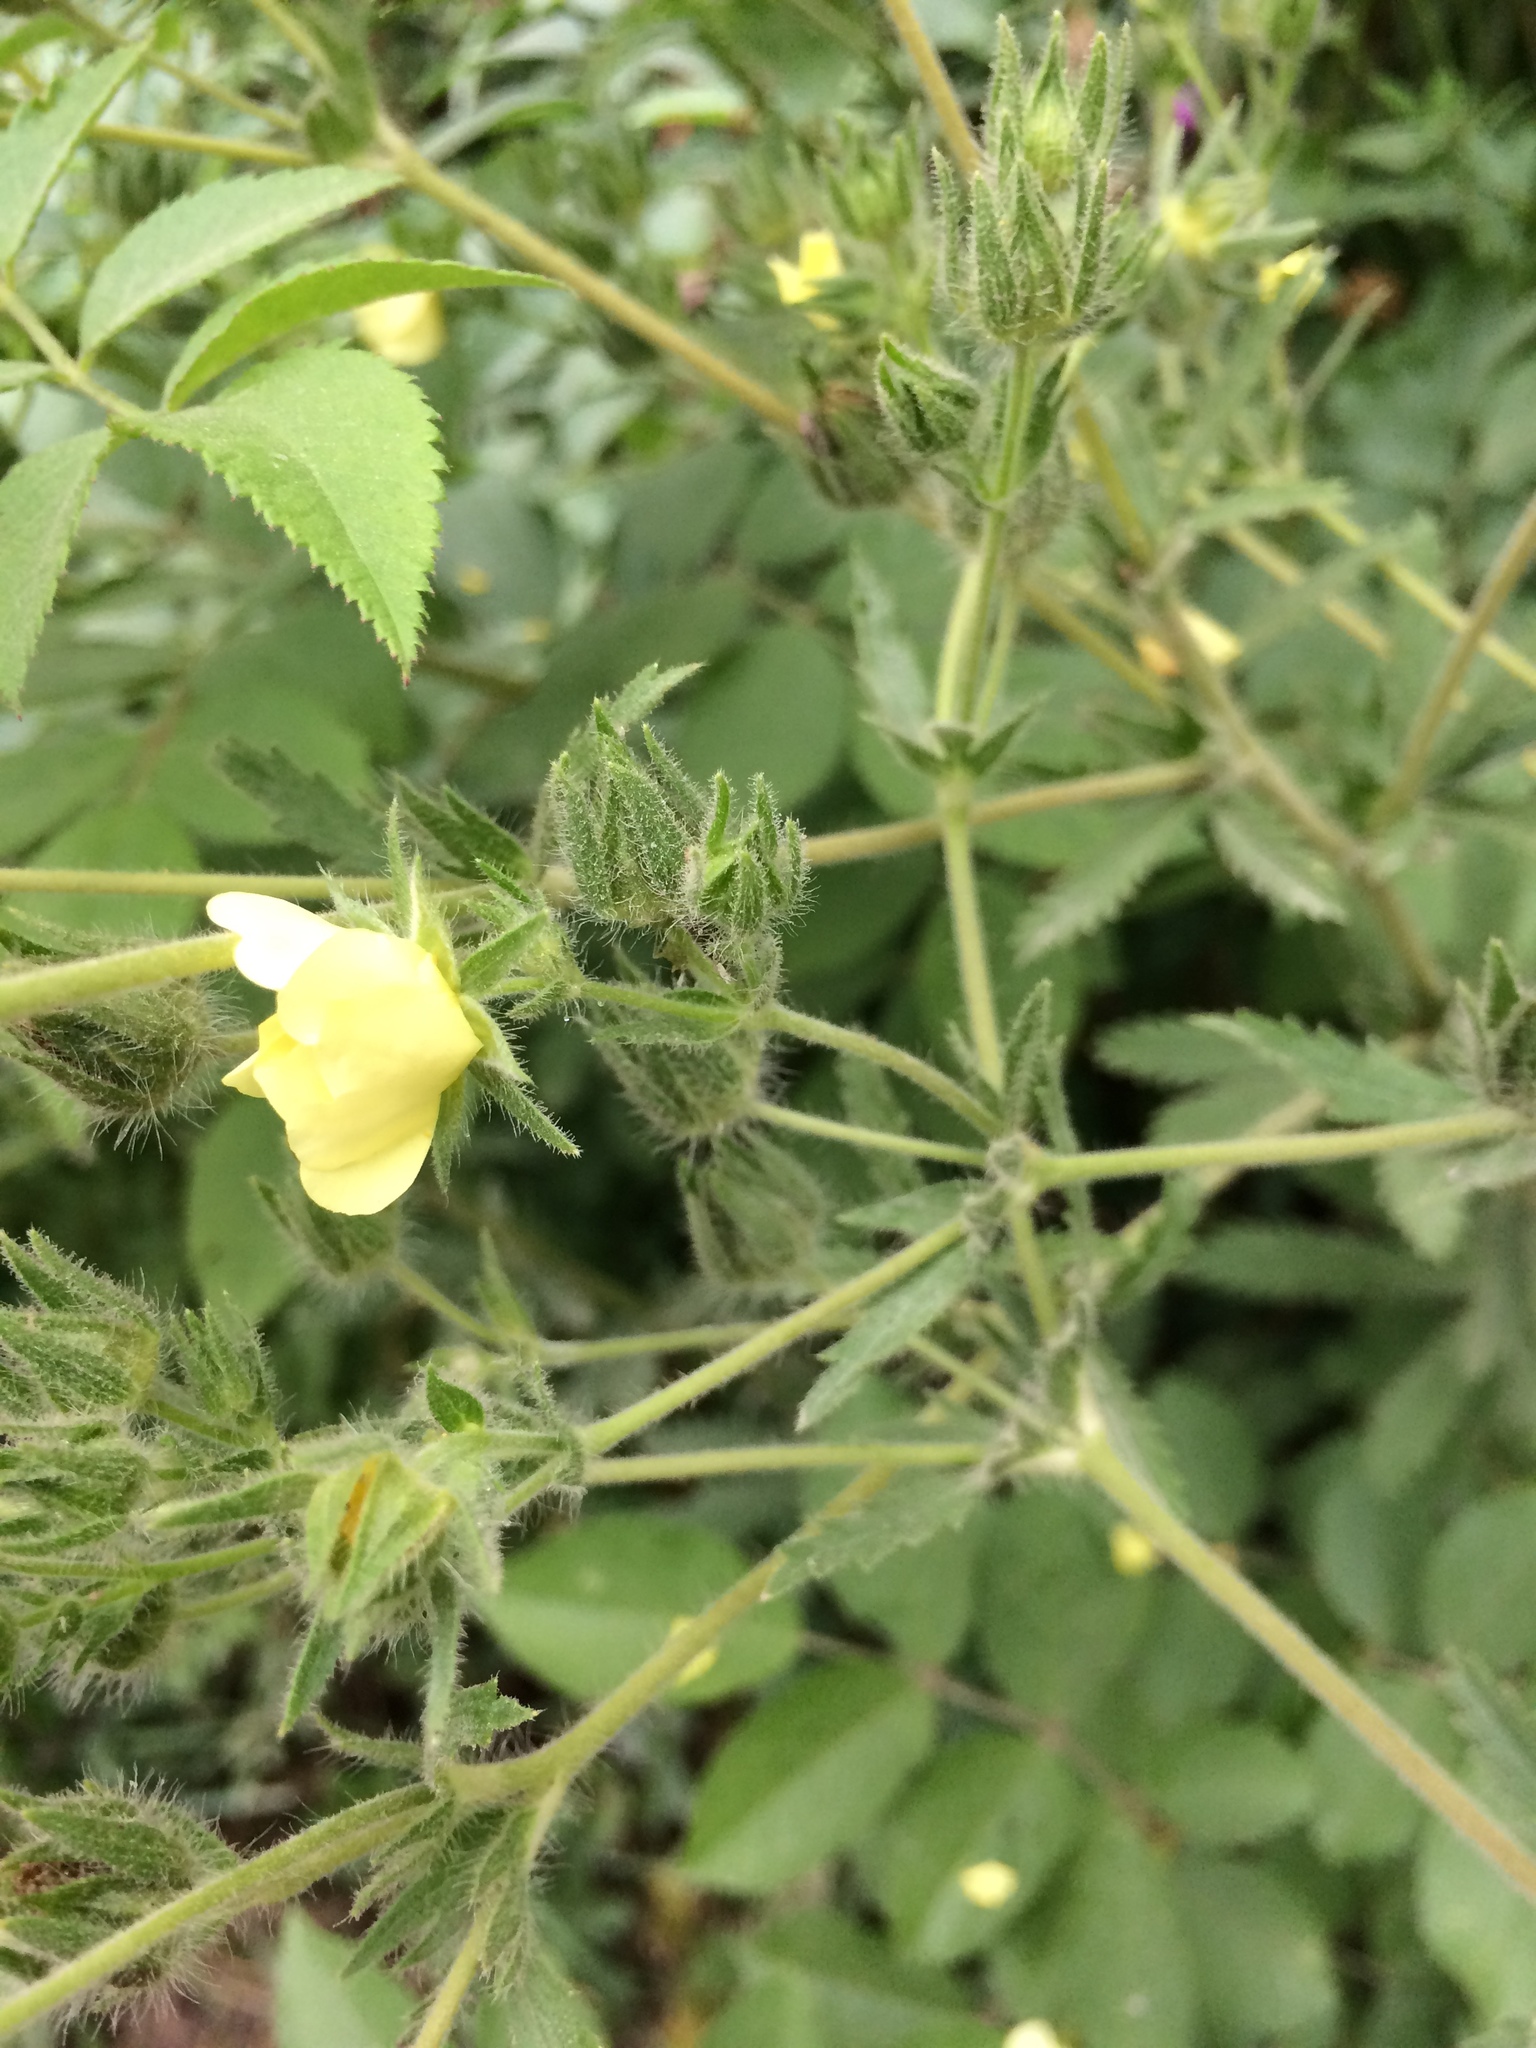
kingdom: Plantae
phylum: Tracheophyta
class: Magnoliopsida
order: Rosales
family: Rosaceae
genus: Potentilla
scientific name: Potentilla recta
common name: Sulphur cinquefoil
